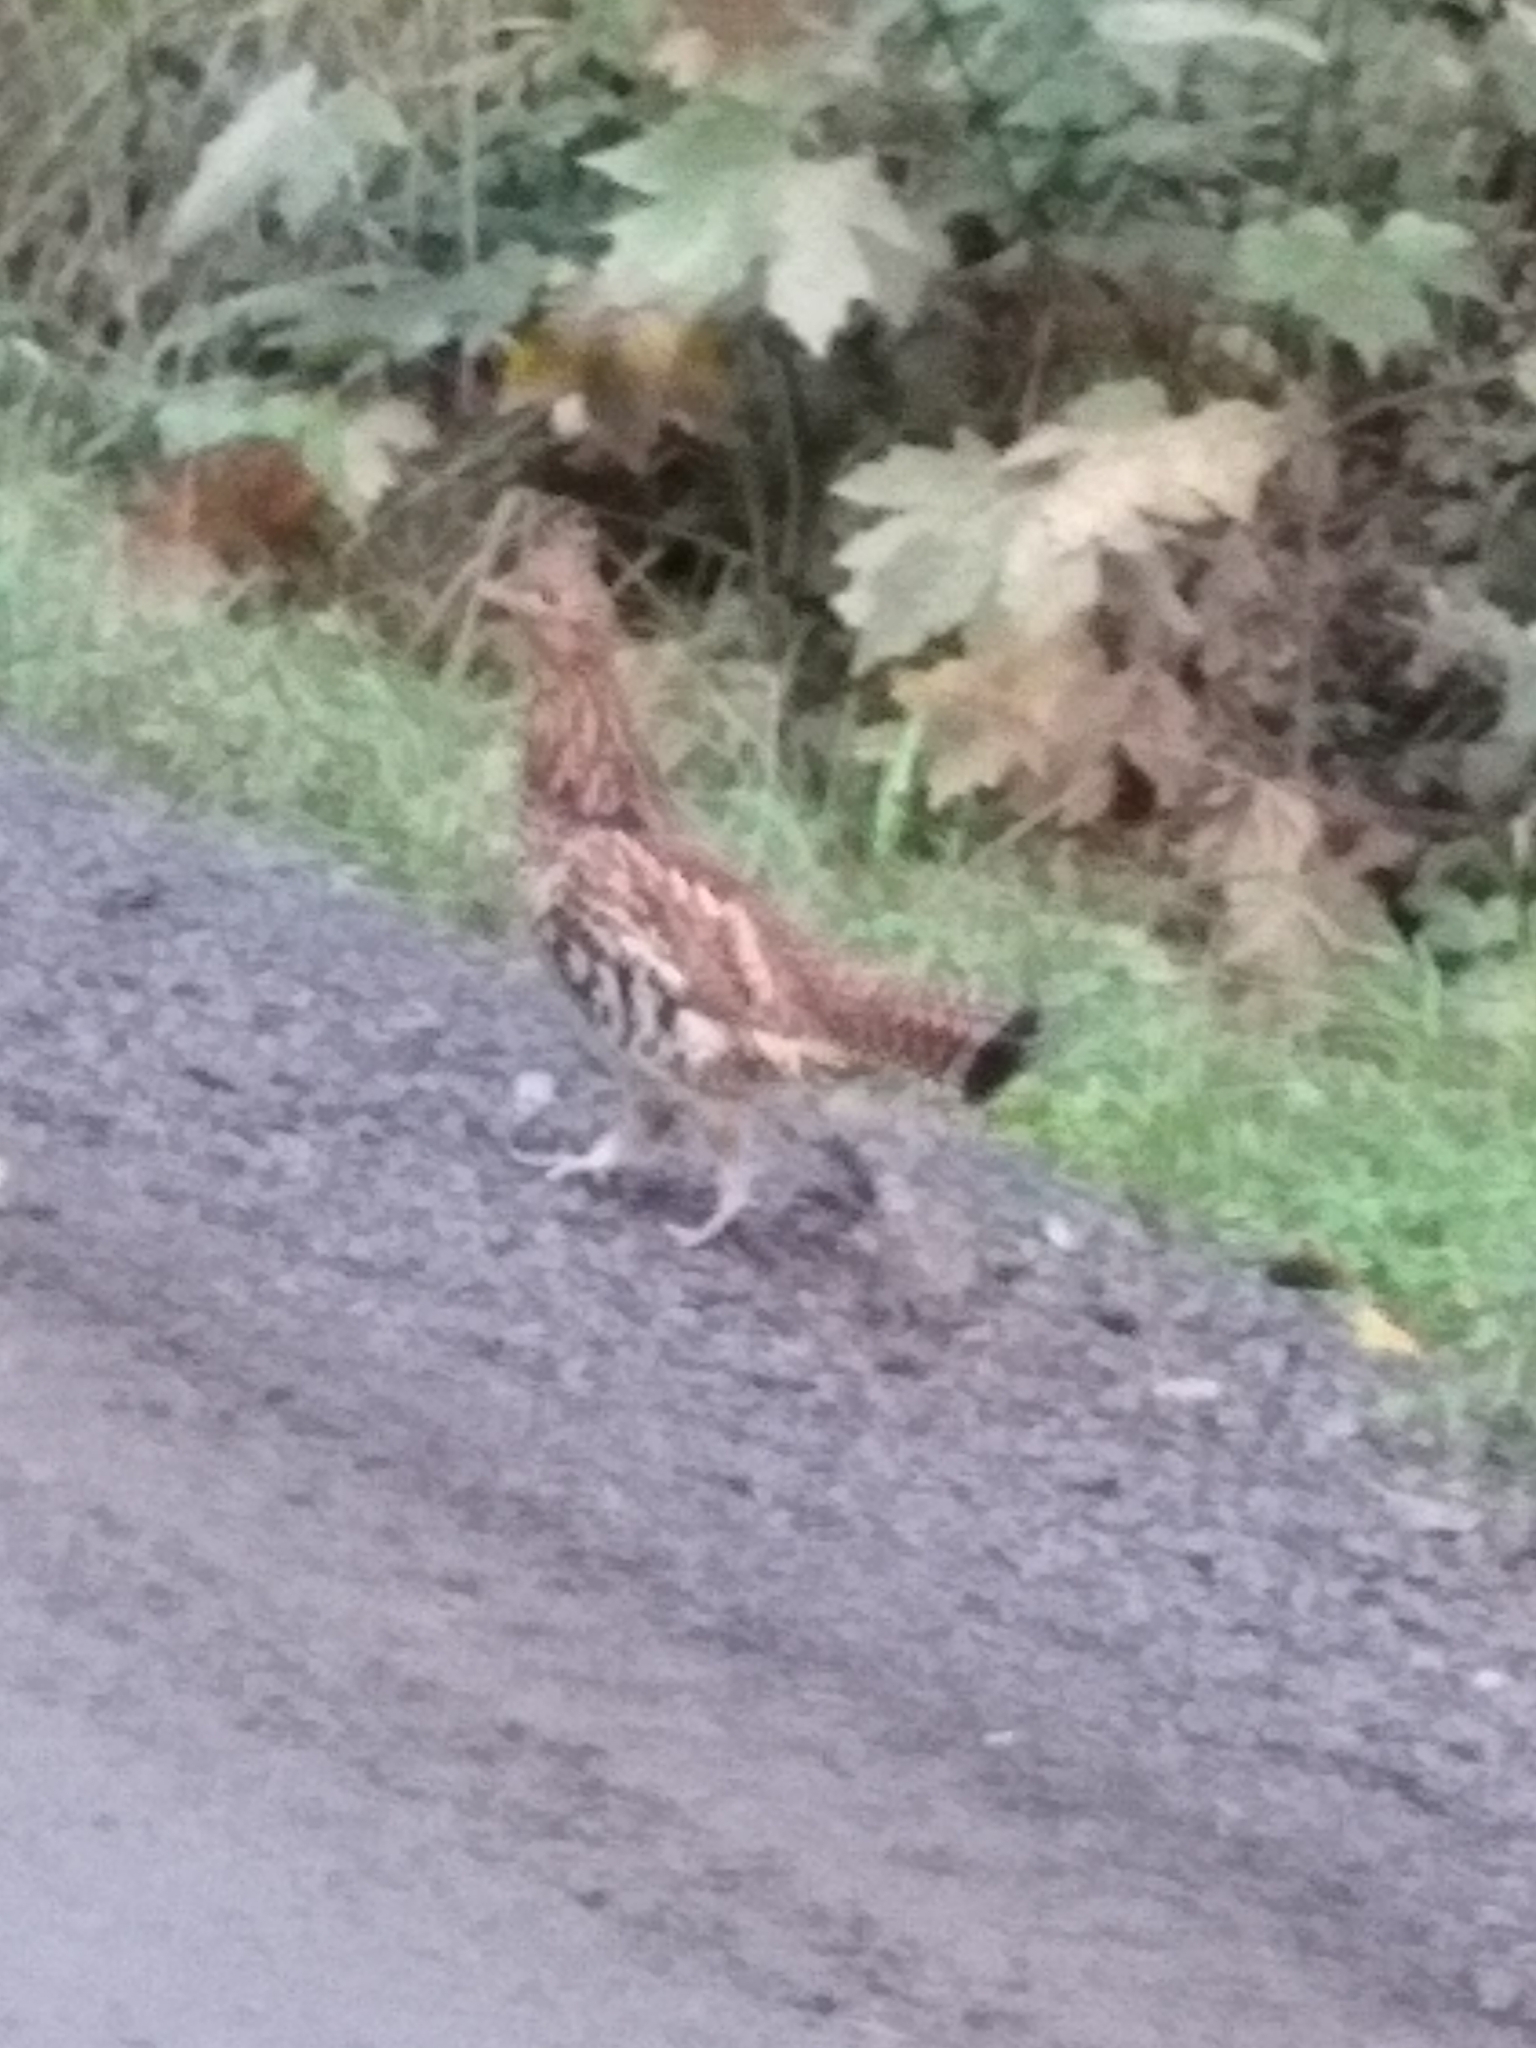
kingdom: Animalia
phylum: Chordata
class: Aves
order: Galliformes
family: Phasianidae
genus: Bonasa
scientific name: Bonasa umbellus
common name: Ruffed grouse
